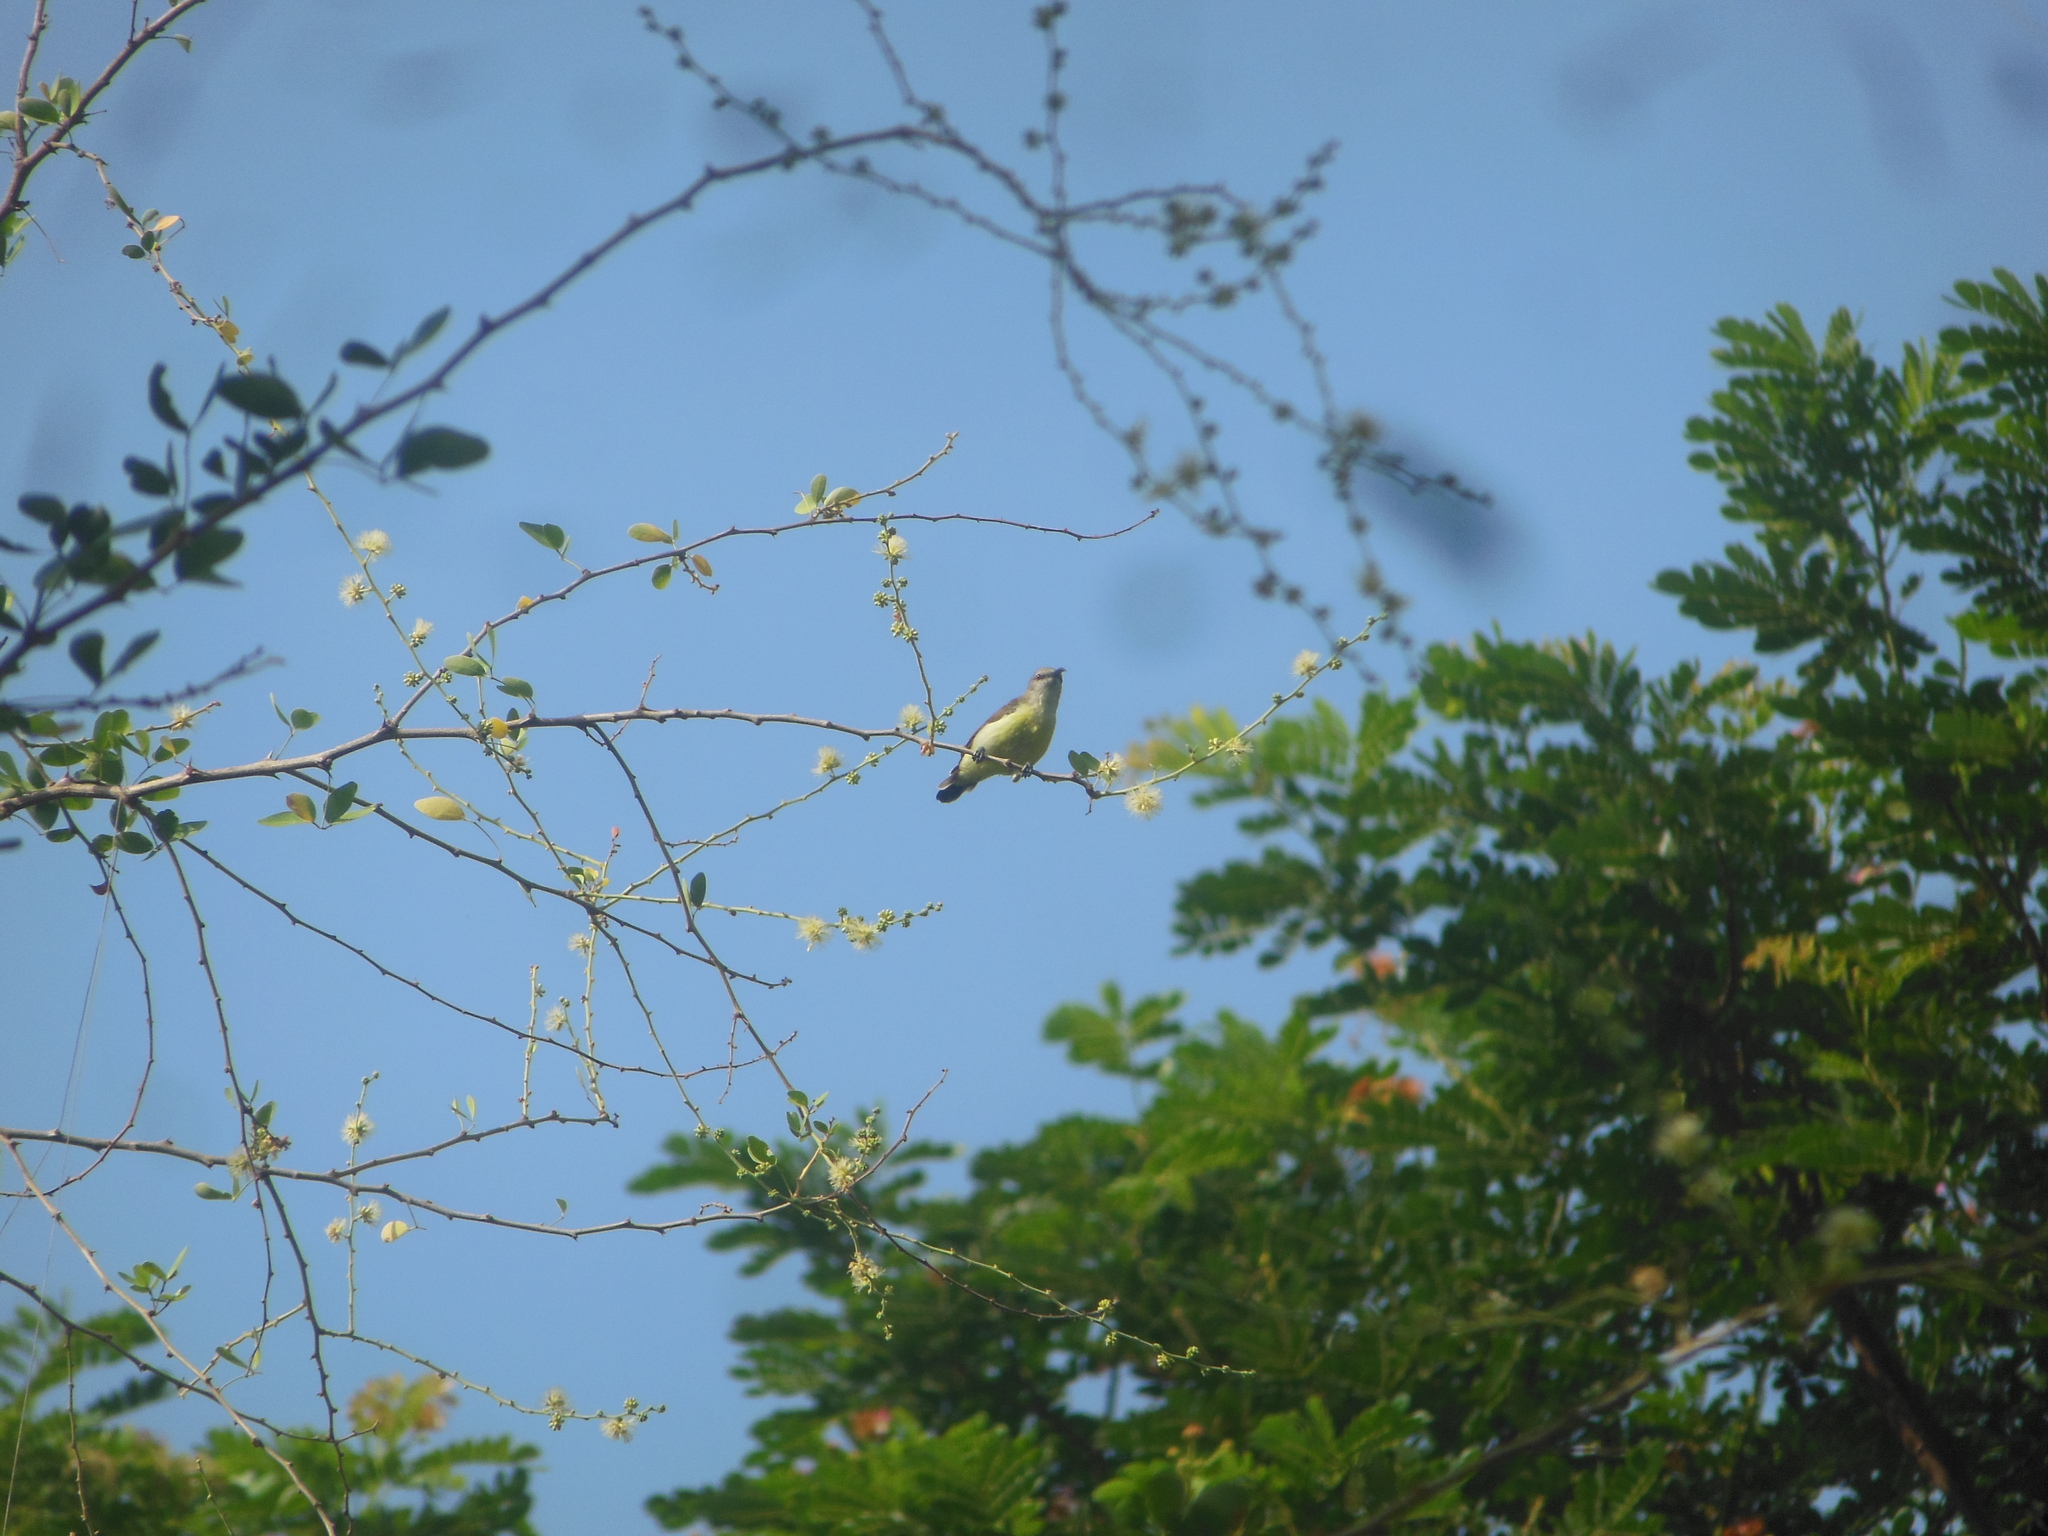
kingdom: Animalia
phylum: Chordata
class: Aves
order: Passeriformes
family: Nectariniidae
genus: Leptocoma
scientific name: Leptocoma zeylonica
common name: Purple-rumped sunbird
